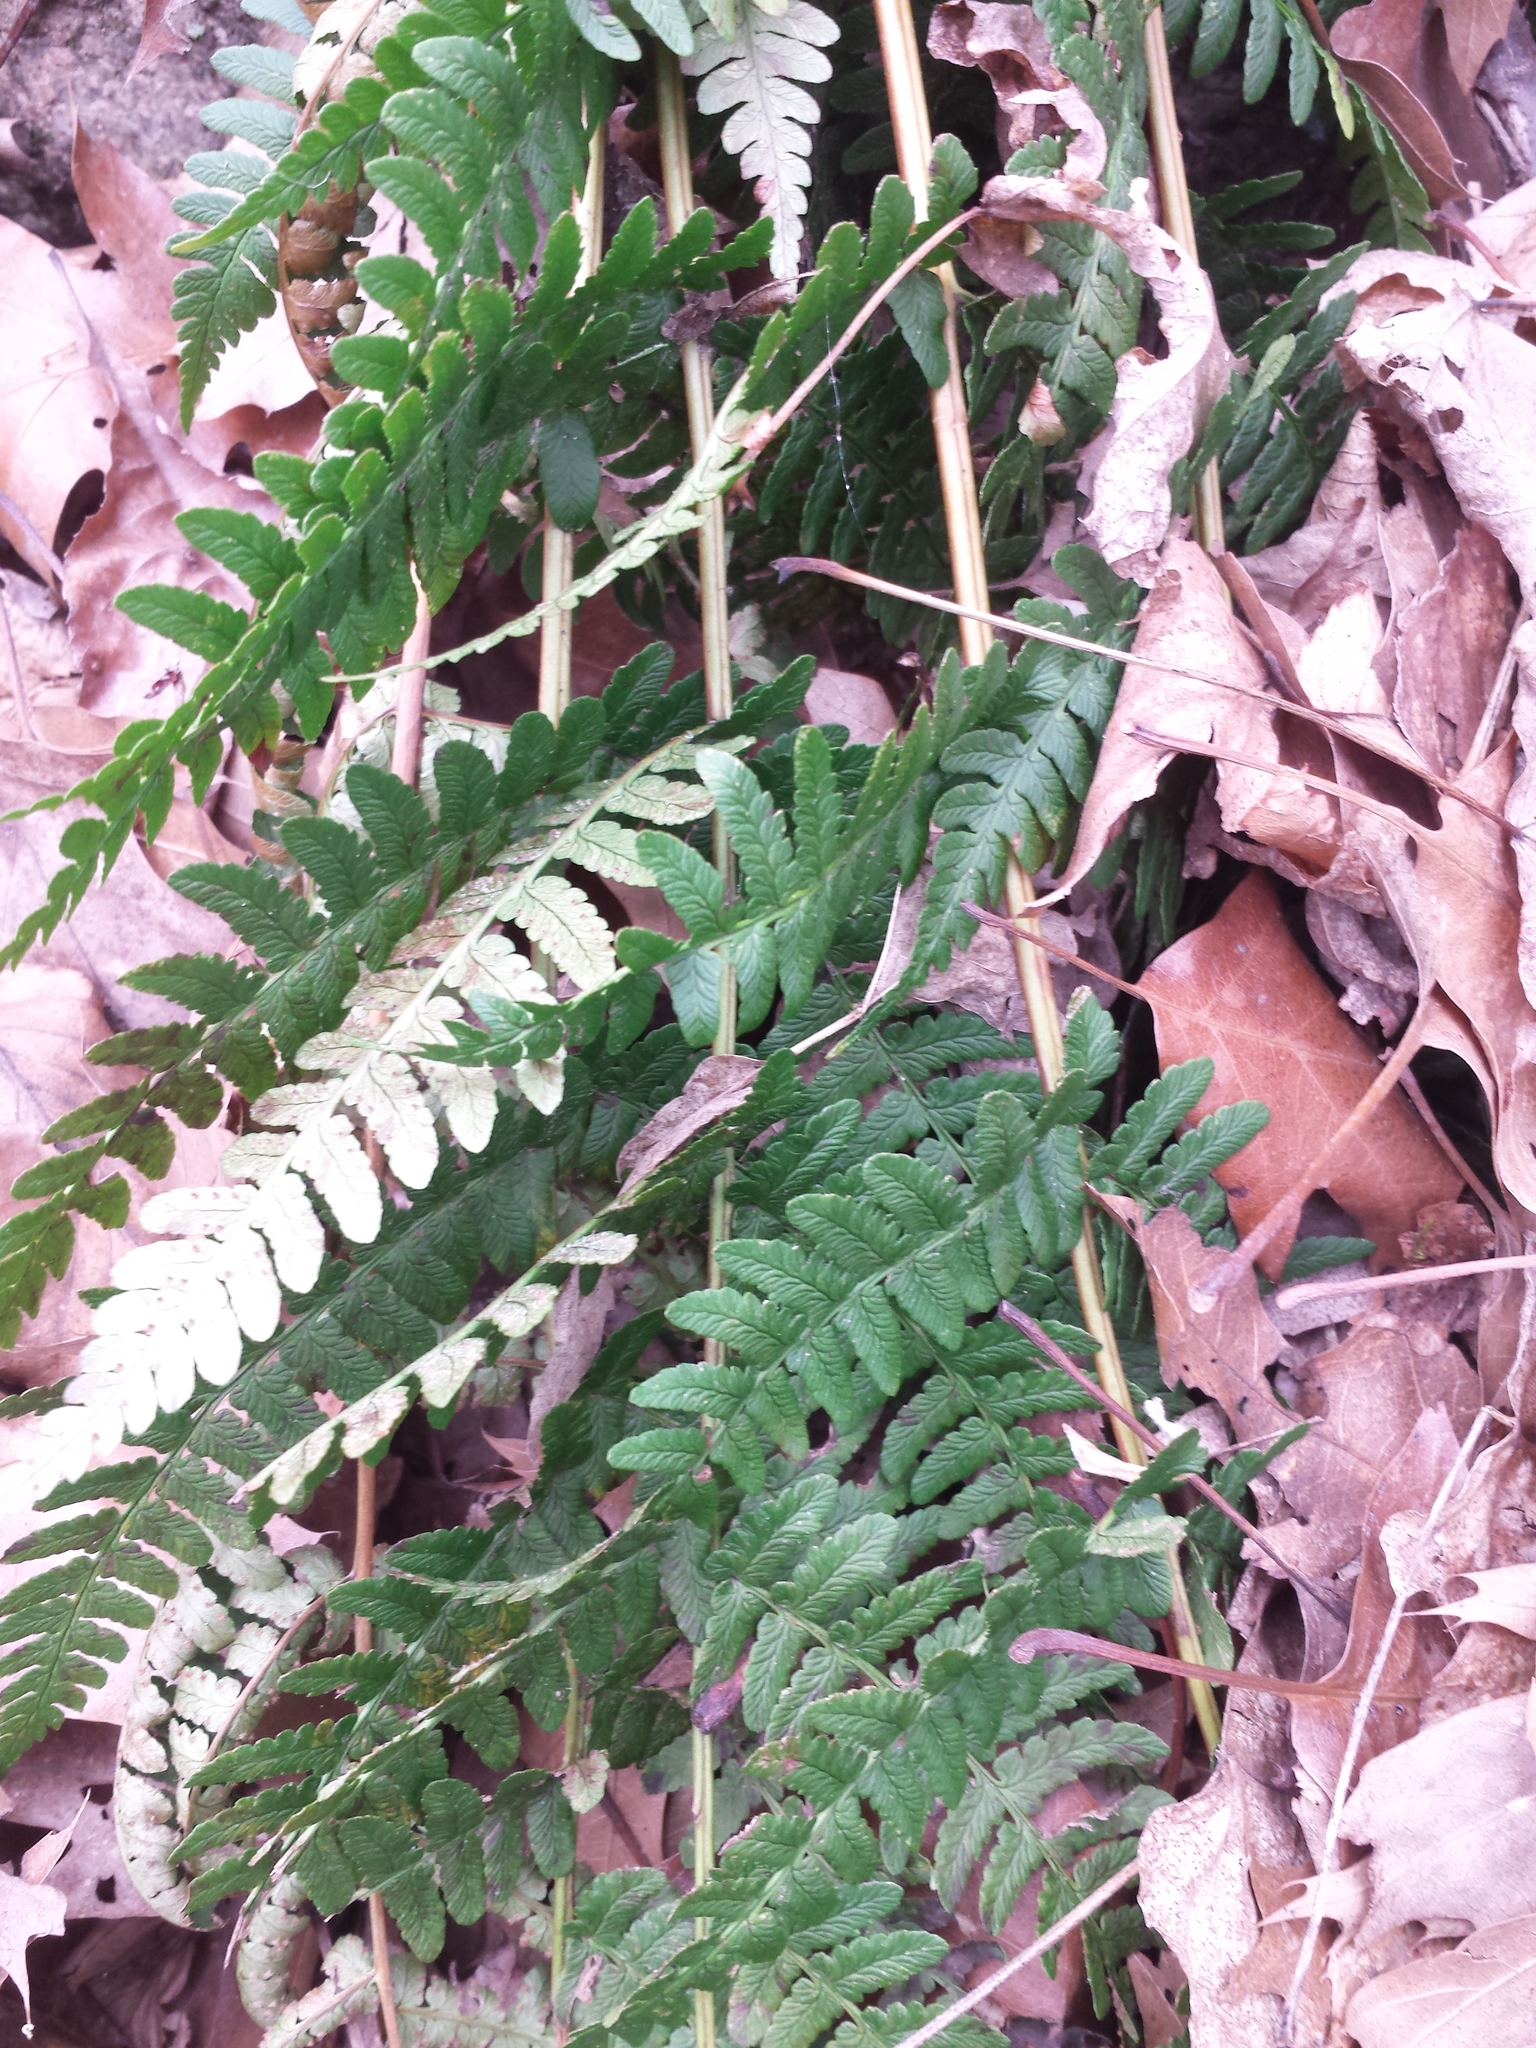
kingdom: Plantae
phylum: Tracheophyta
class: Polypodiopsida
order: Polypodiales
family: Dryopteridaceae
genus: Dryopteris
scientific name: Dryopteris marginalis
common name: Marginal wood fern
